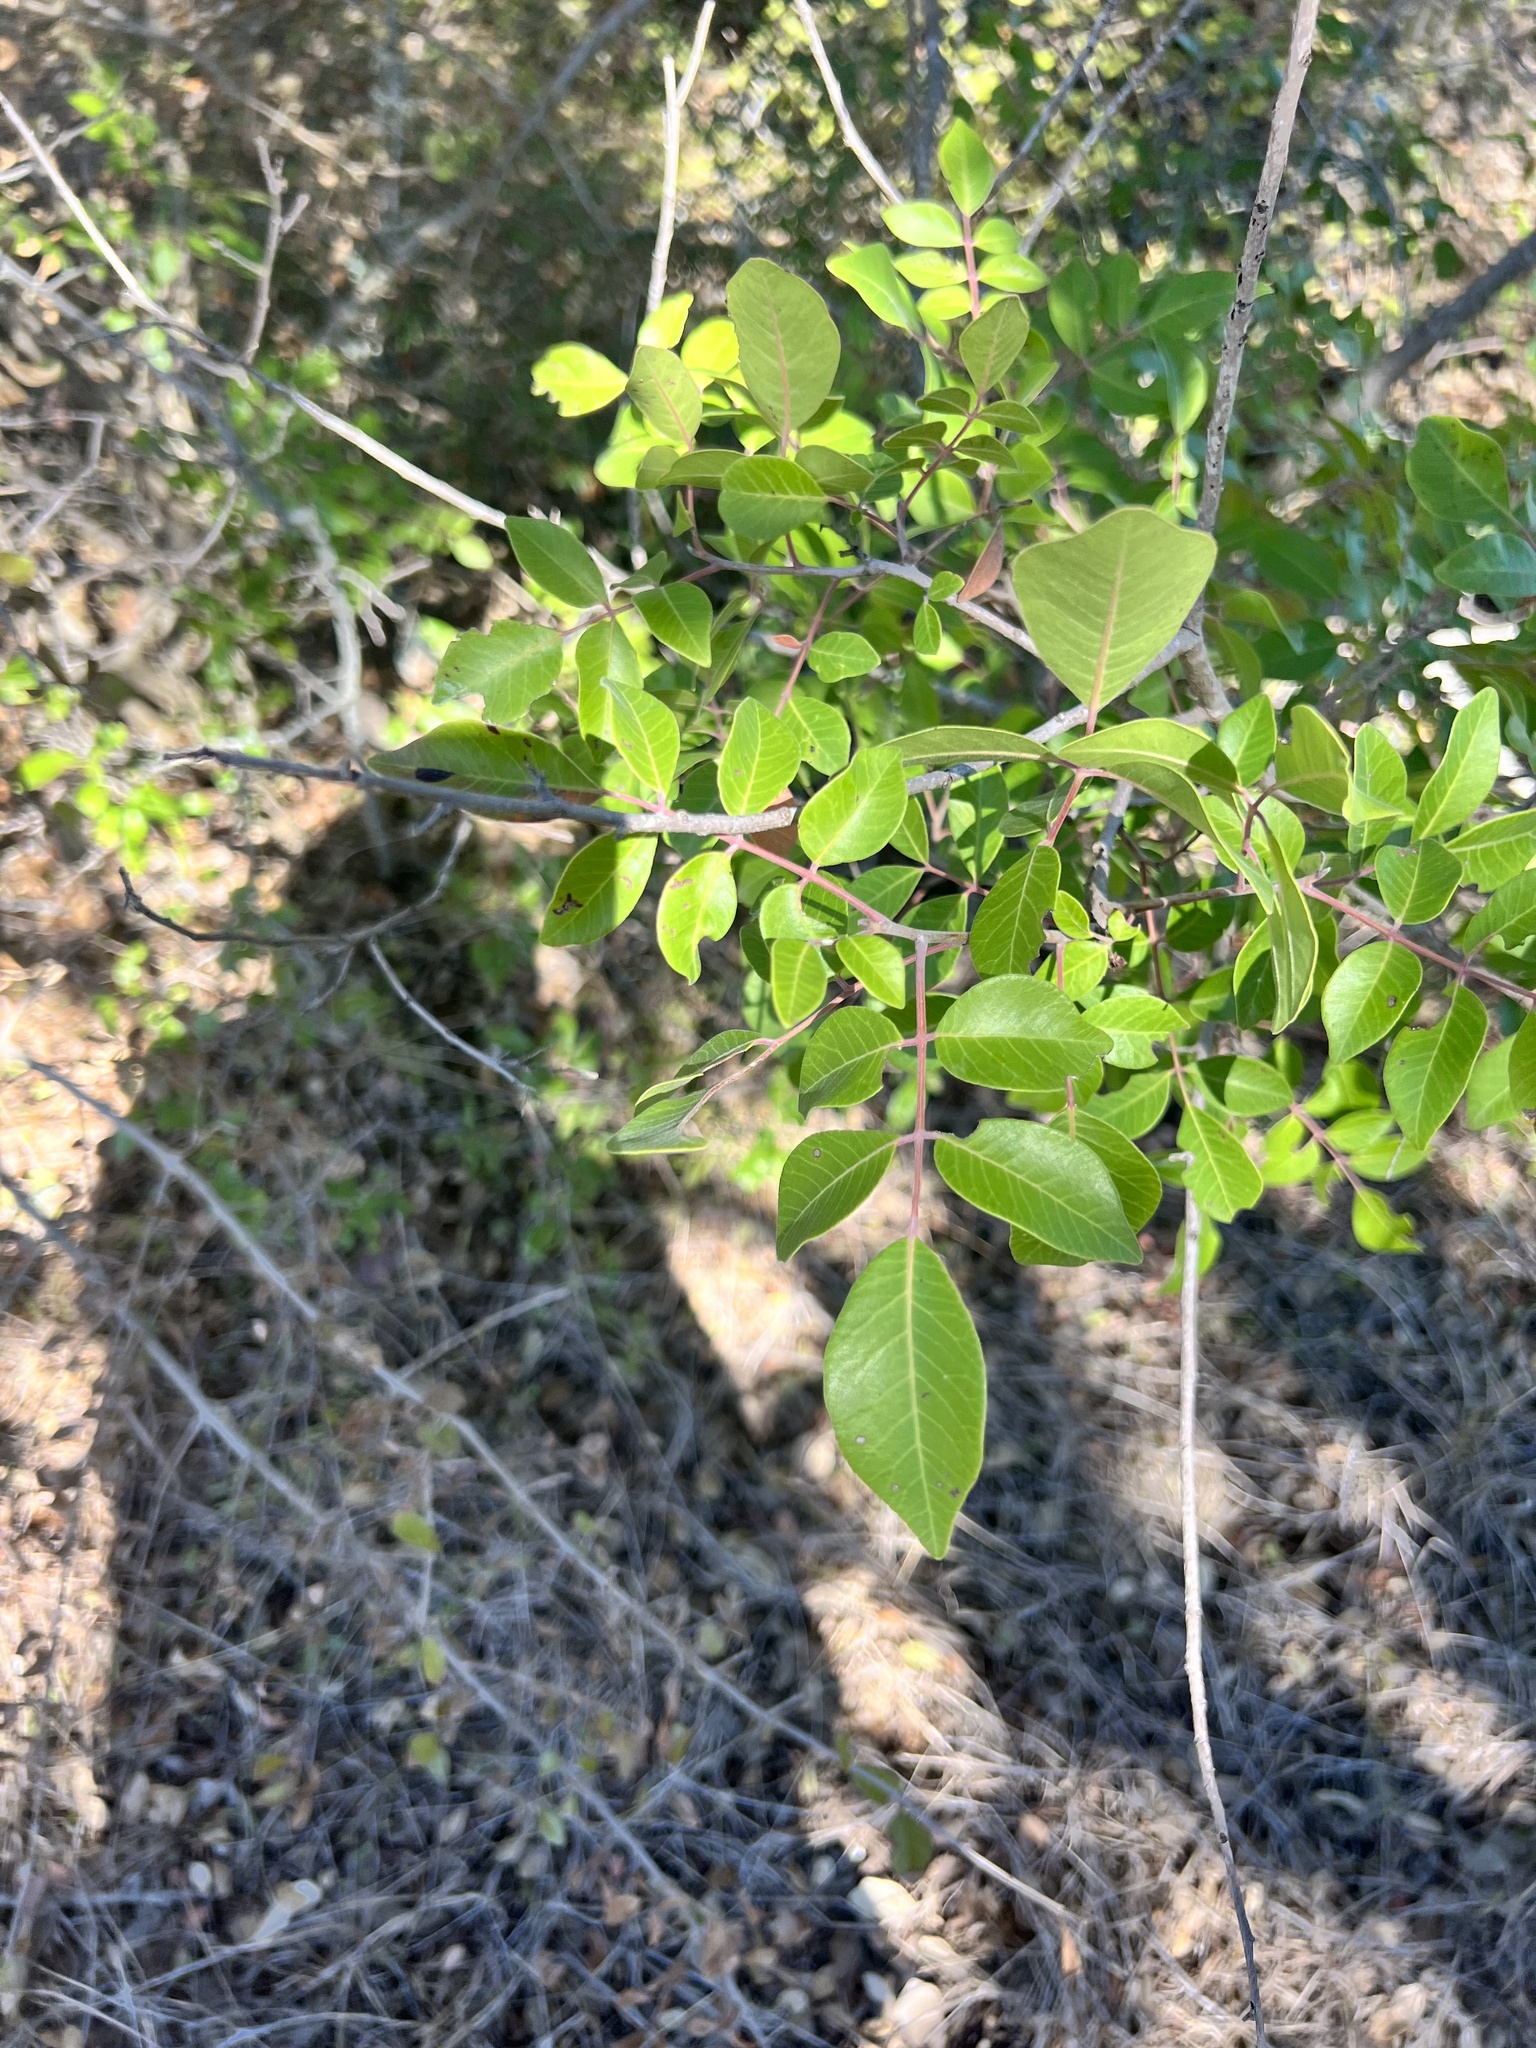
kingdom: Plantae
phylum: Tracheophyta
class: Magnoliopsida
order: Sapindales
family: Anacardiaceae
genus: Rhus
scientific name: Rhus virens
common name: Evergreen sumac
